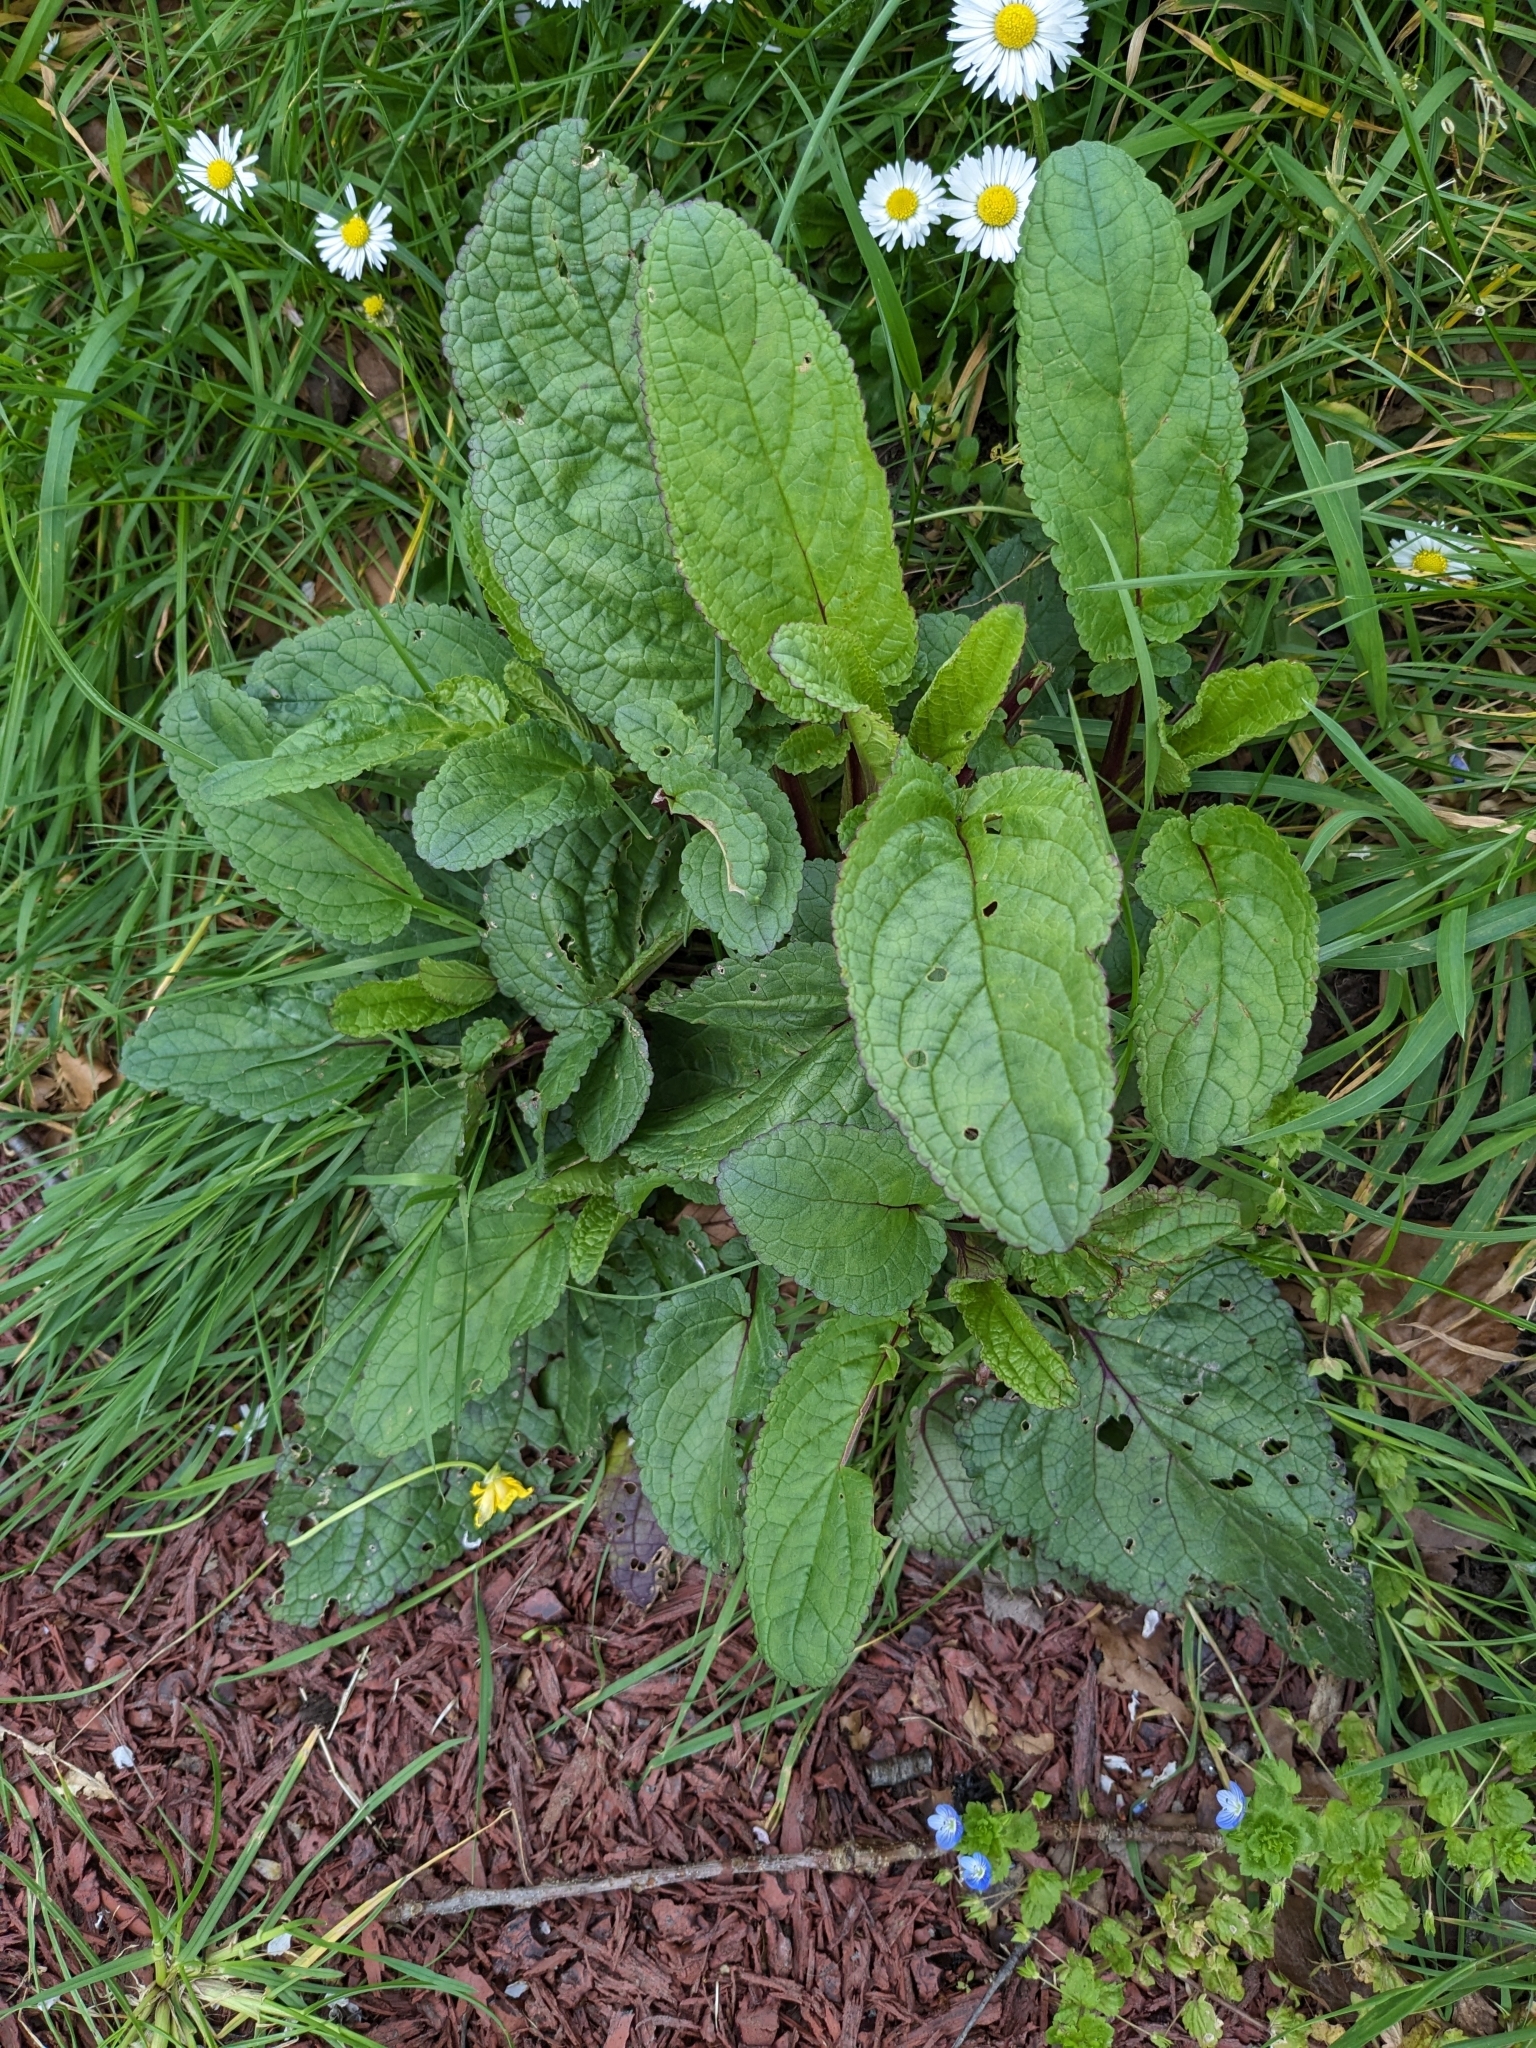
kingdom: Plantae
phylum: Tracheophyta
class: Magnoliopsida
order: Lamiales
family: Scrophulariaceae
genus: Scrophularia
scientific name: Scrophularia auriculata
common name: Water betony
